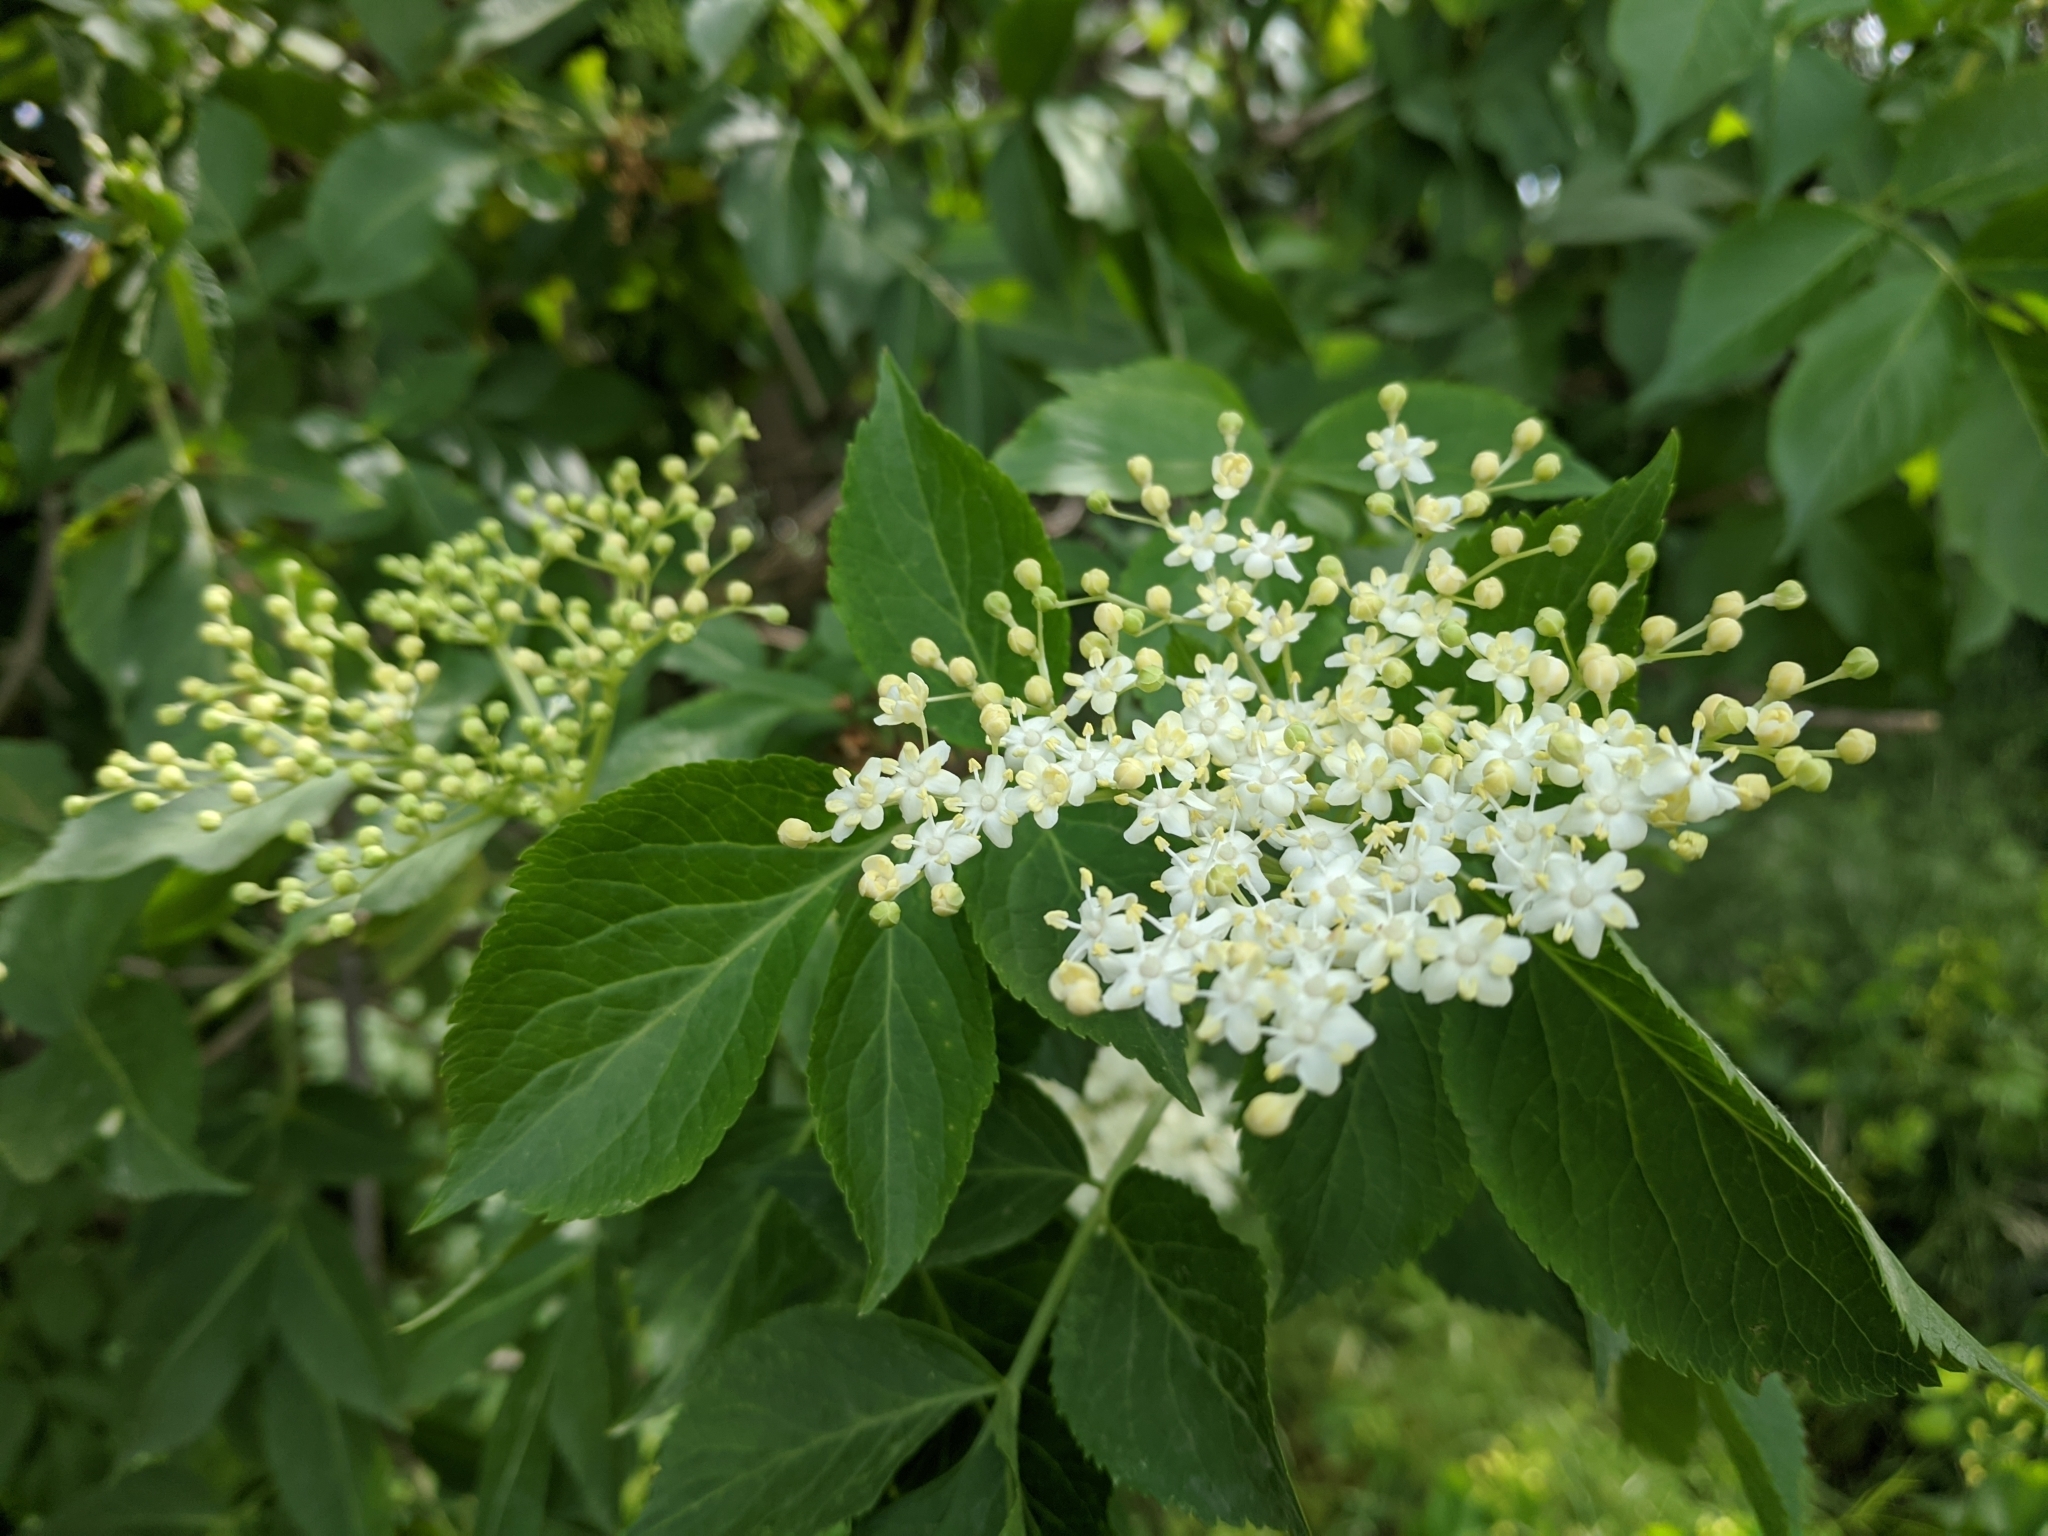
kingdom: Plantae
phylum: Tracheophyta
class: Magnoliopsida
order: Dipsacales
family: Viburnaceae
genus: Sambucus
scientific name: Sambucus nigra
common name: Elder
